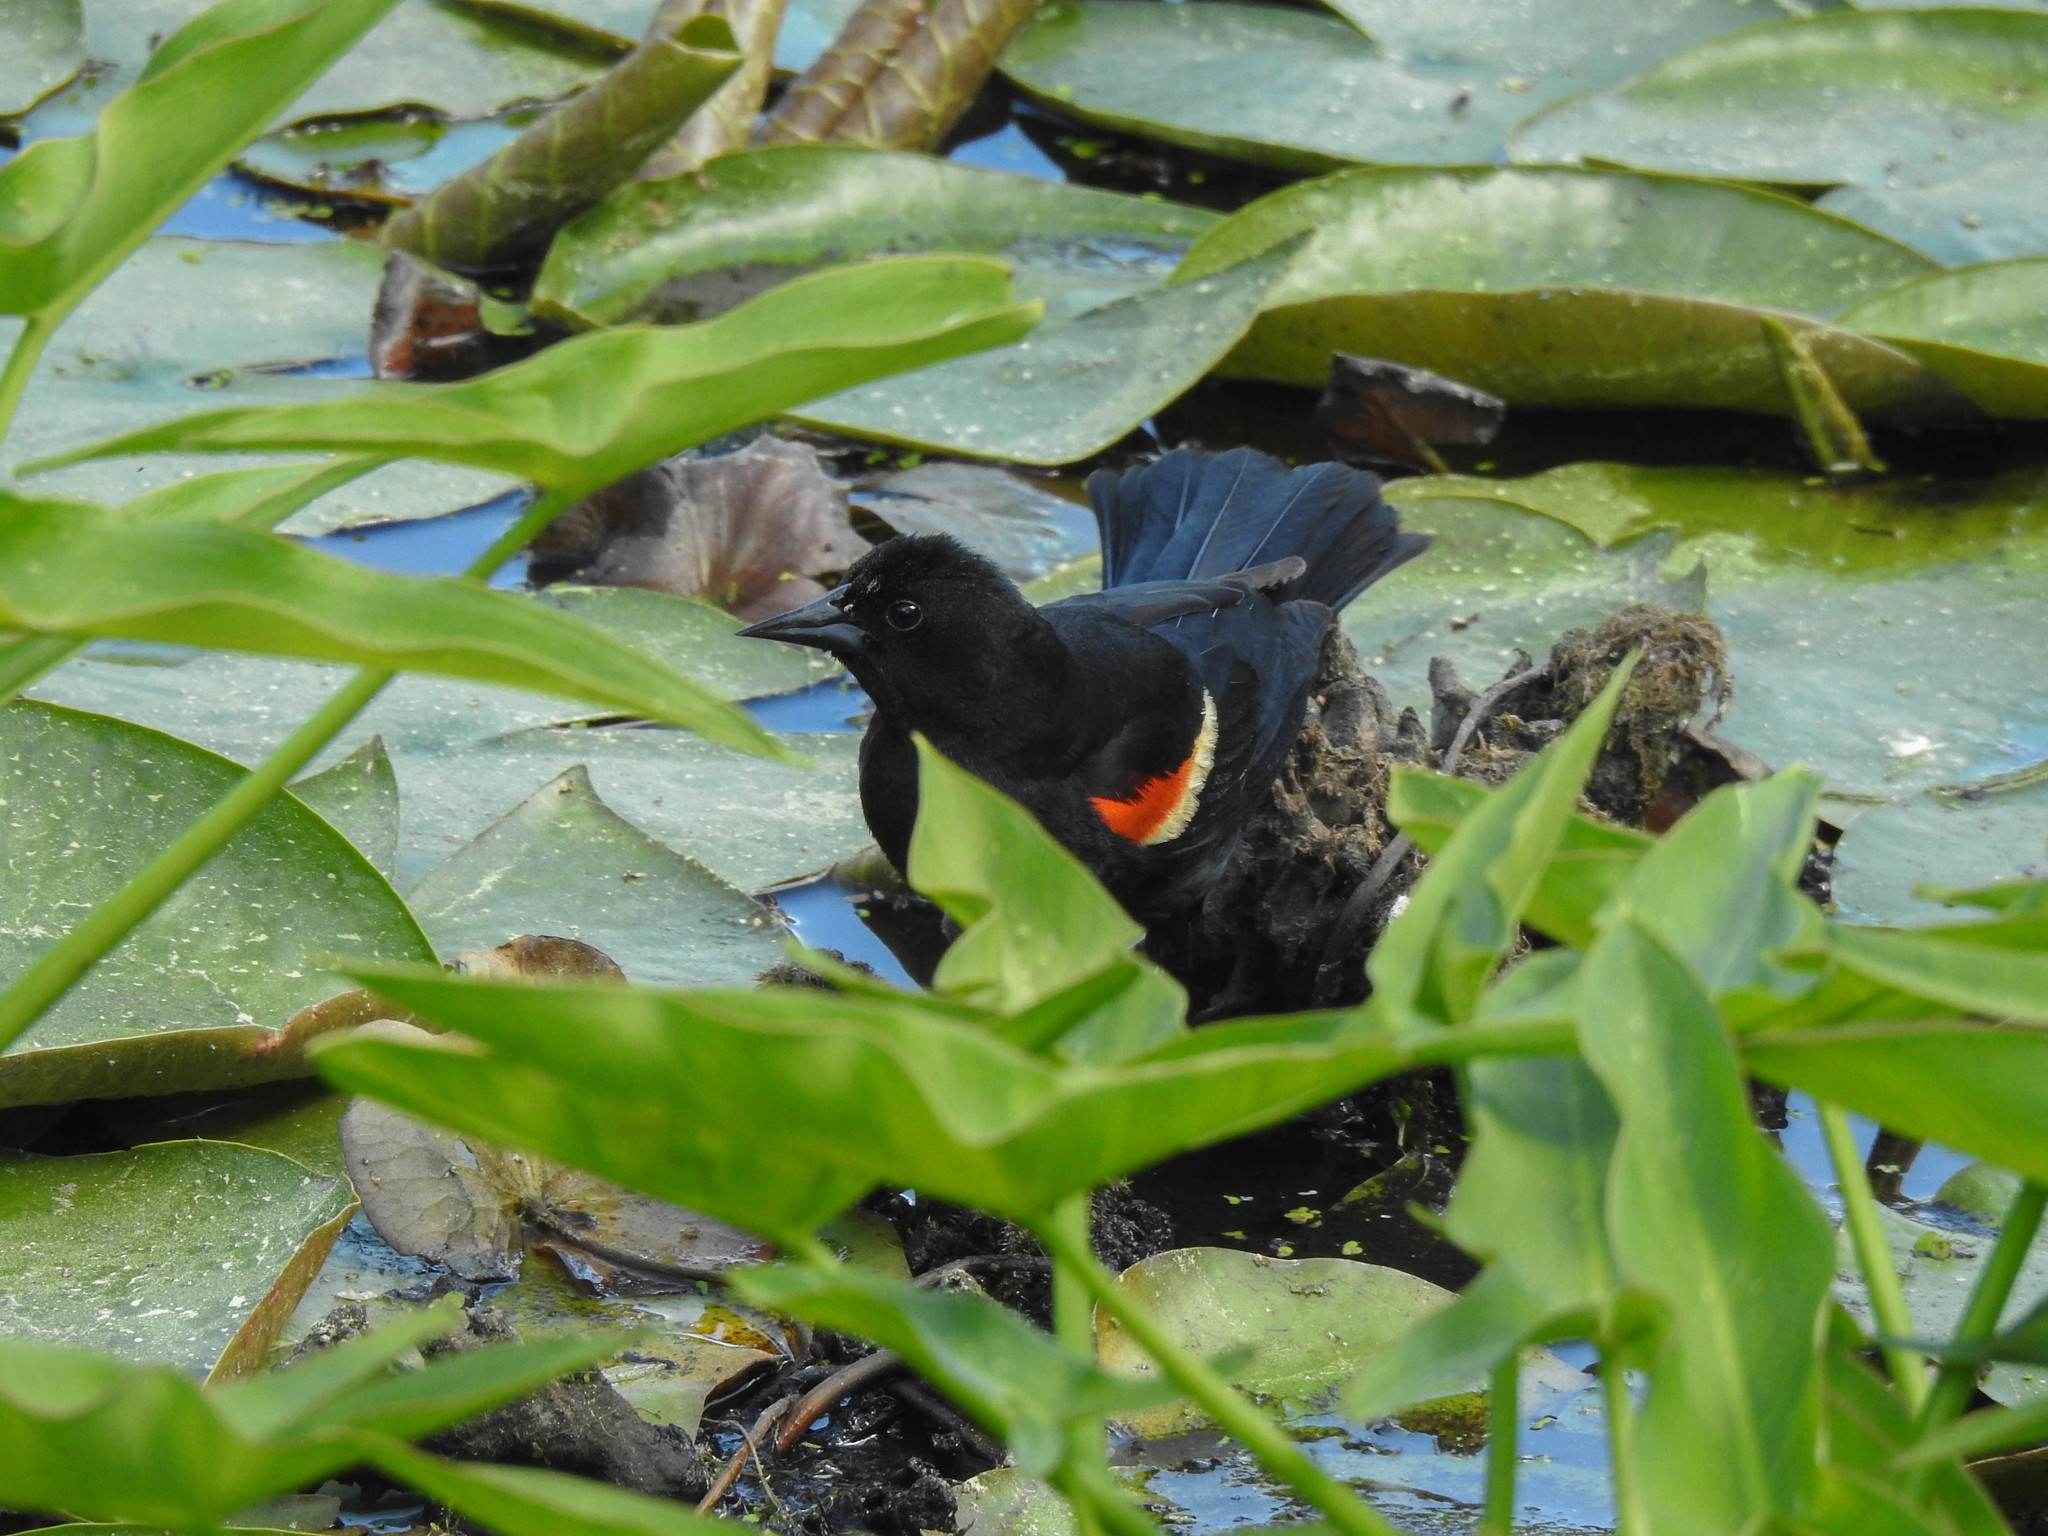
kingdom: Animalia
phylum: Chordata
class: Aves
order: Passeriformes
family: Icteridae
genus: Agelaius
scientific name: Agelaius phoeniceus
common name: Red-winged blackbird
